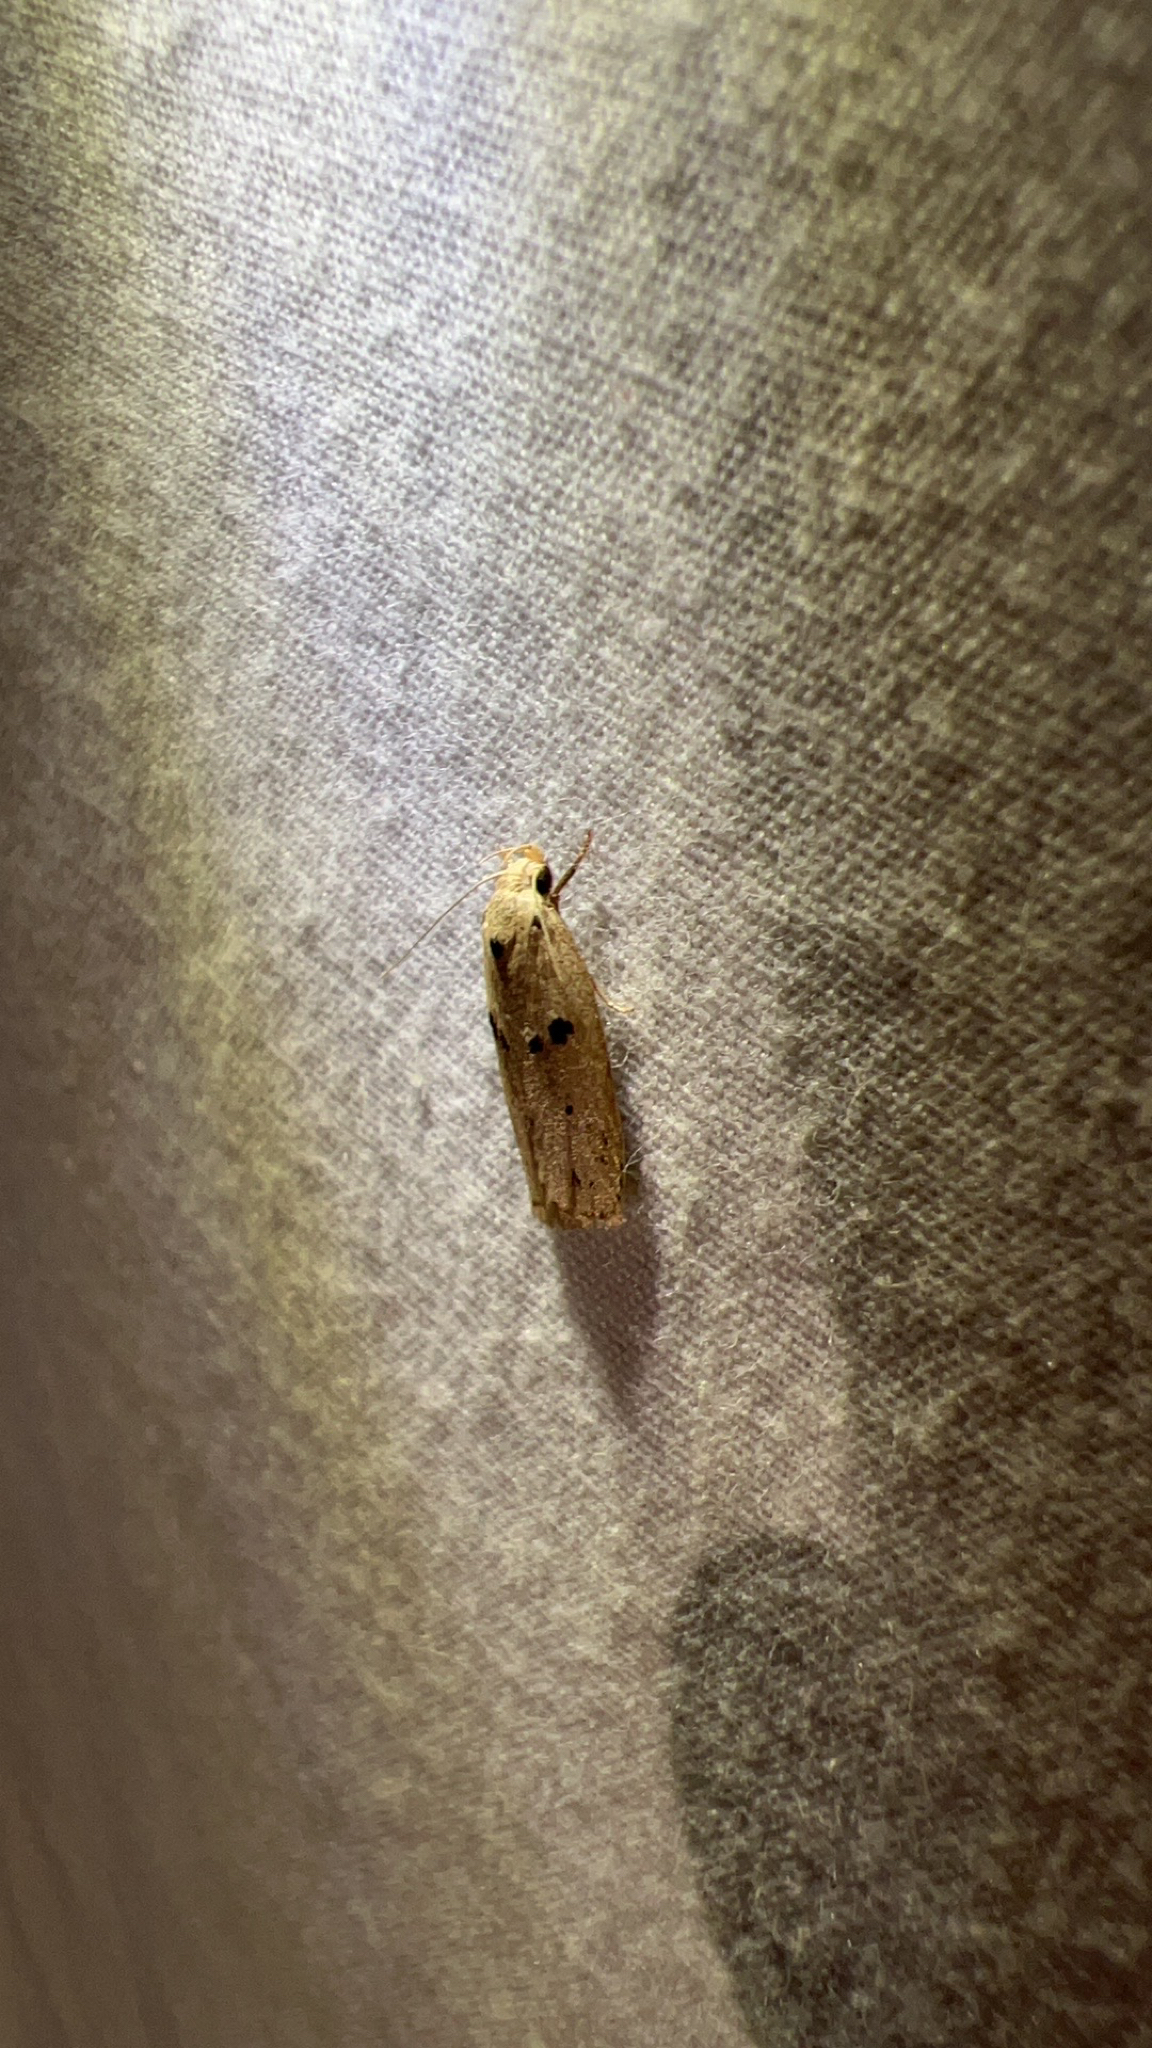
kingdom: Animalia
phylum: Arthropoda
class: Insecta
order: Lepidoptera
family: Peleopodidae
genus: Scythropiodes
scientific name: Scythropiodes issikii
